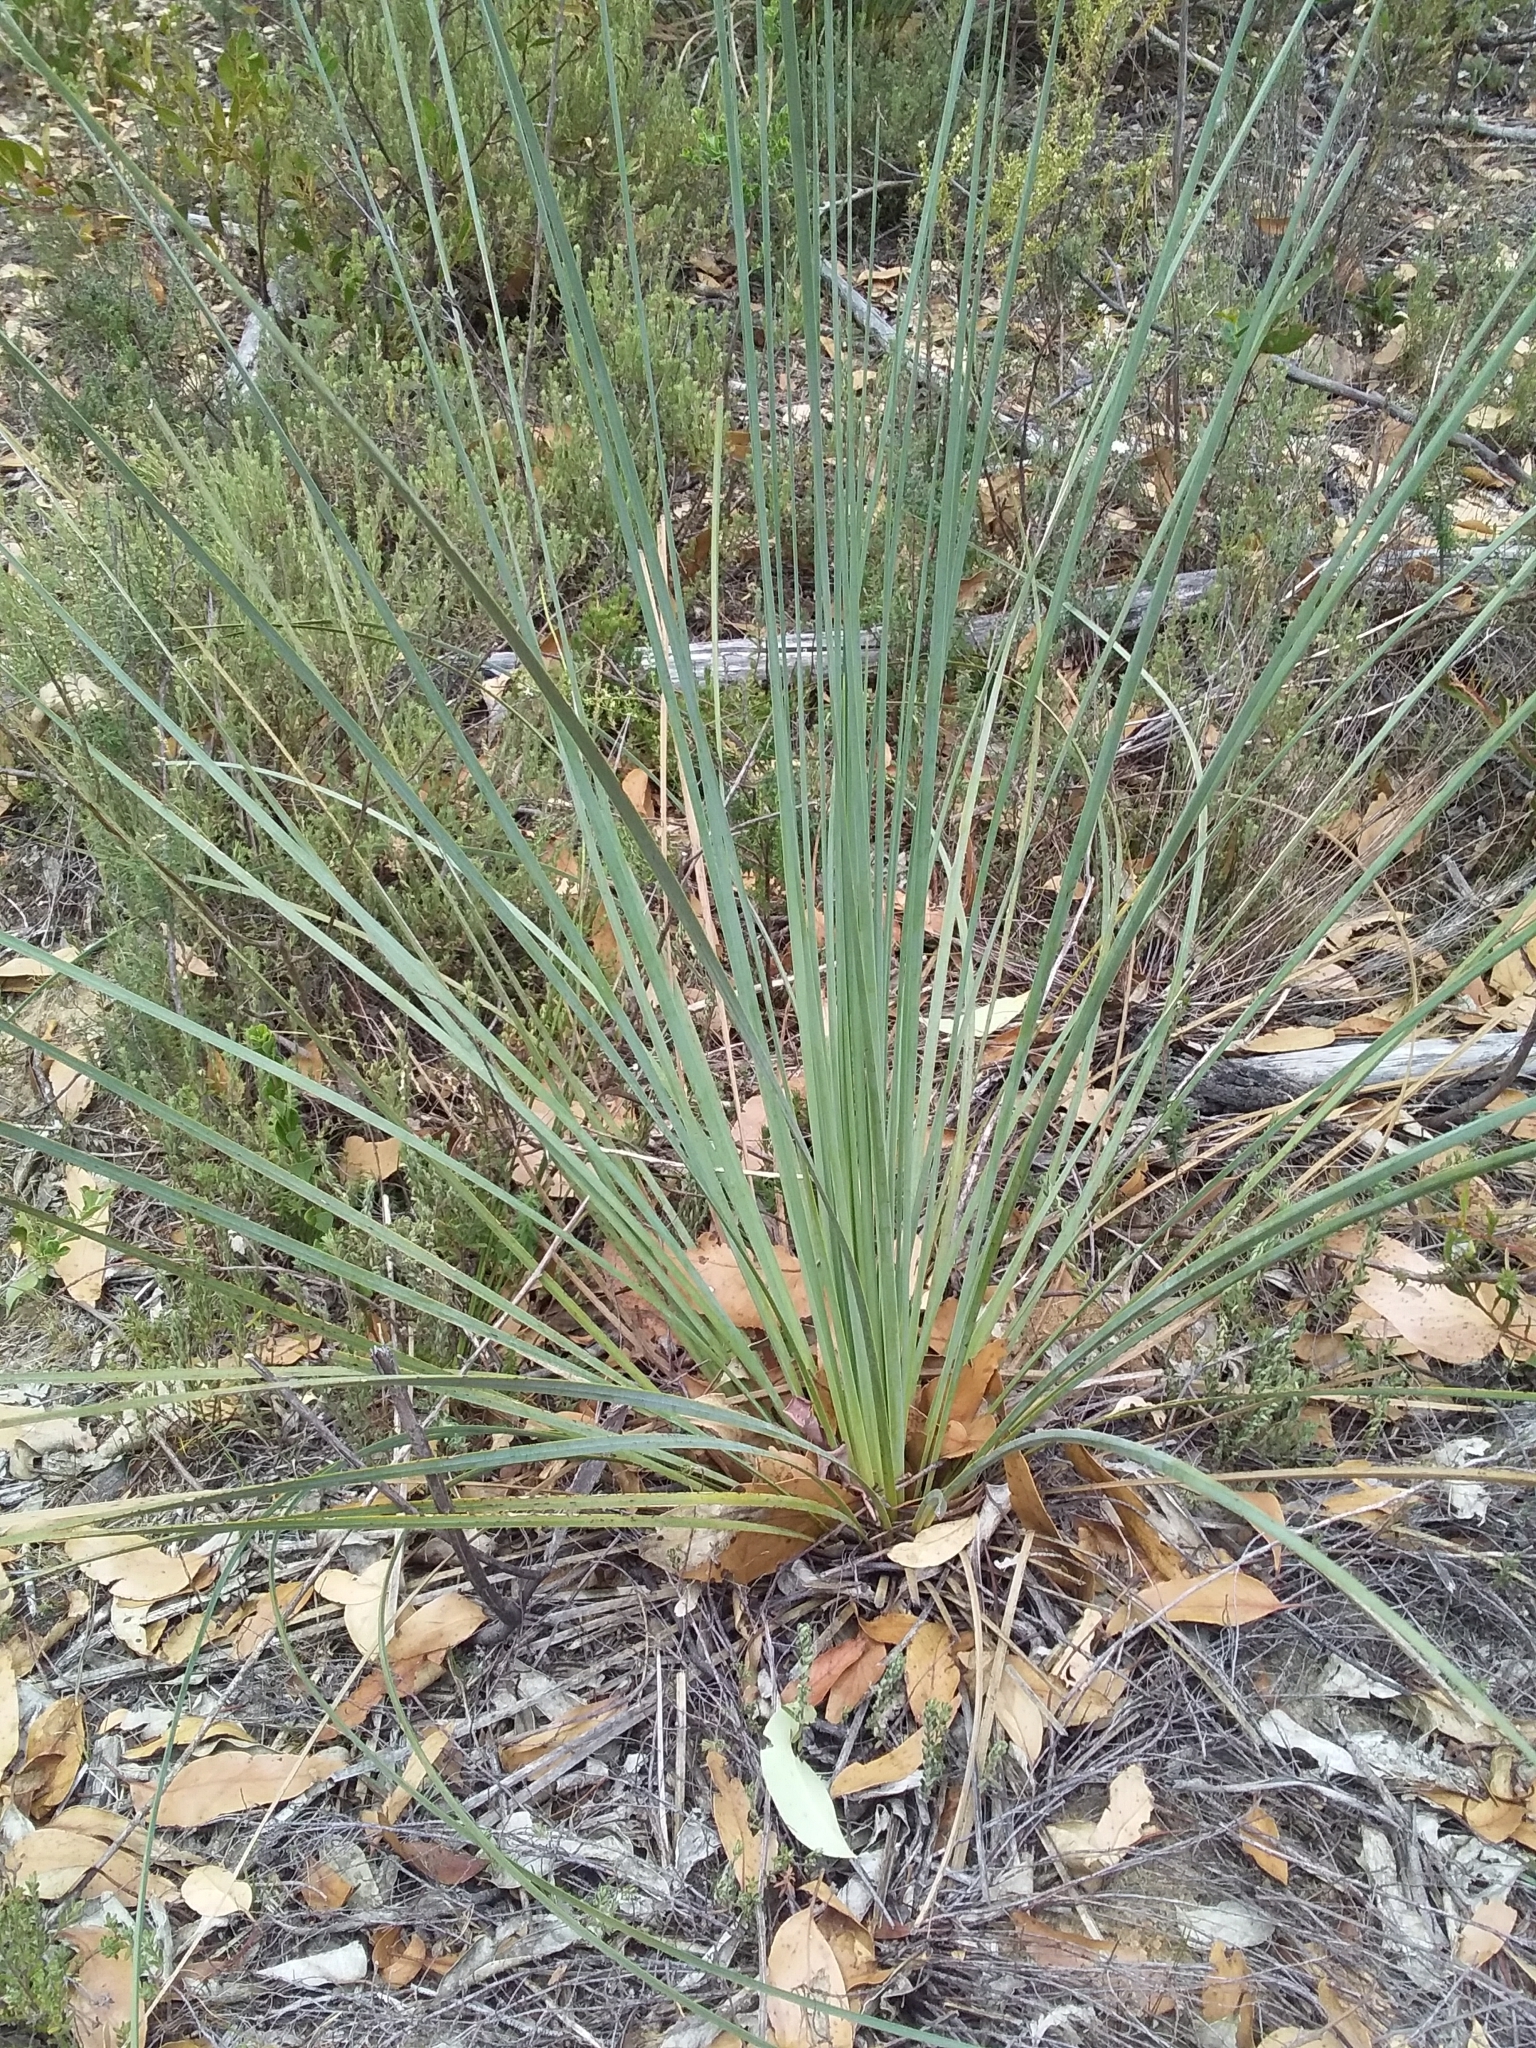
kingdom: Plantae
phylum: Tracheophyta
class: Liliopsida
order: Asparagales
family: Asphodelaceae
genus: Xanthorrhoea
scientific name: Xanthorrhoea semiplana
